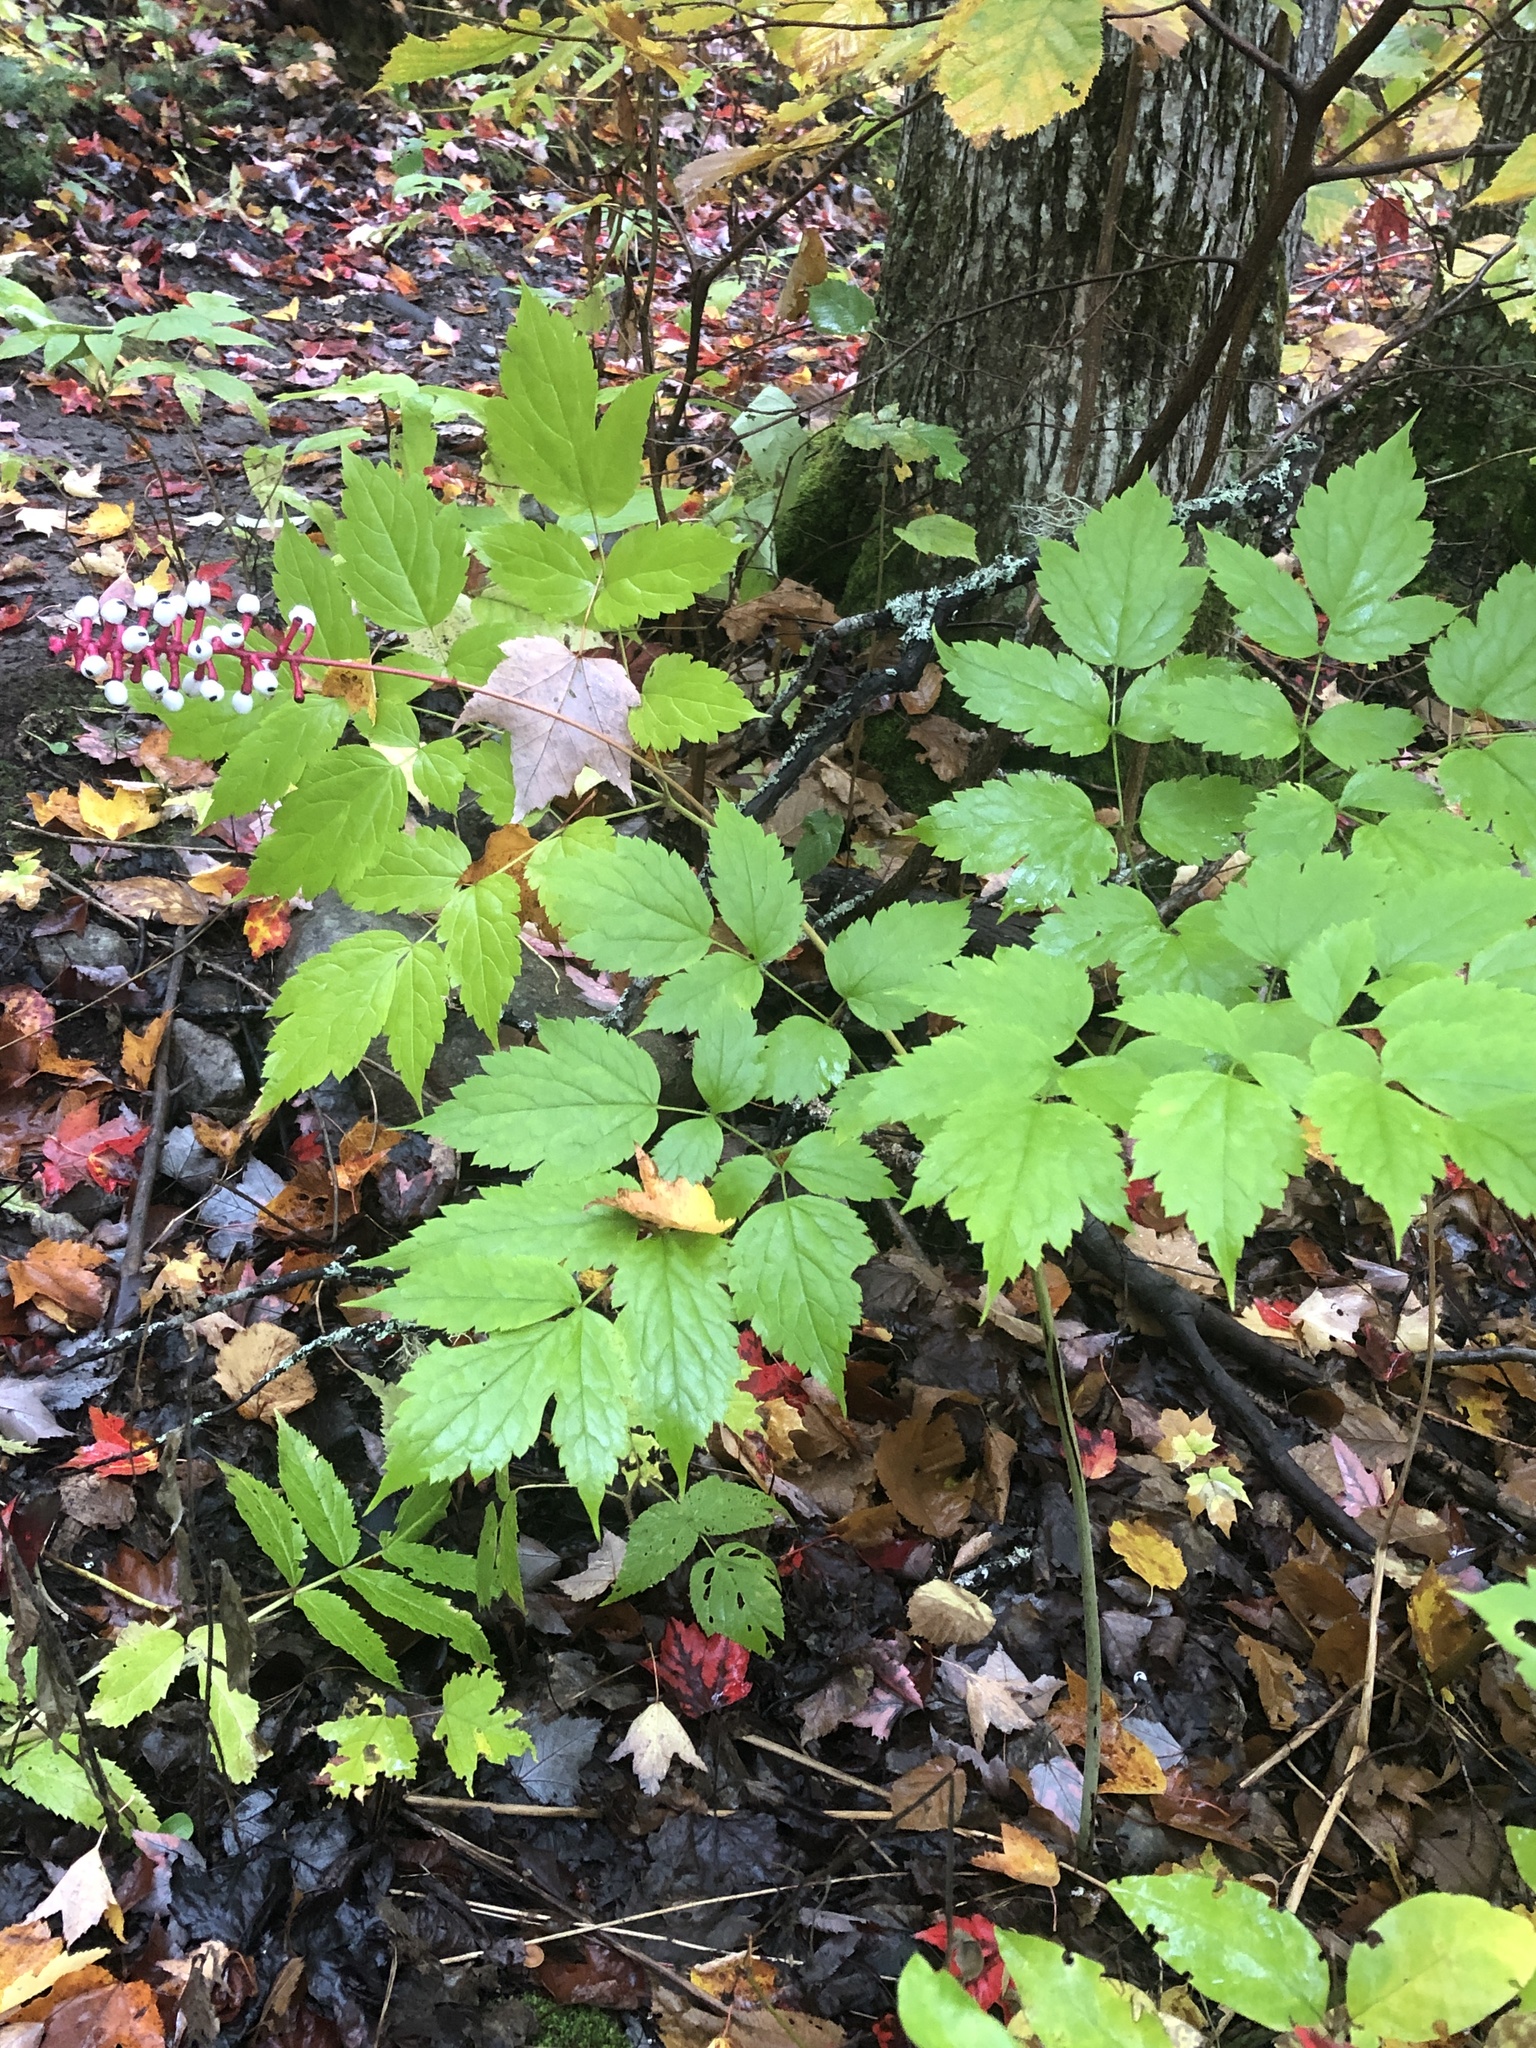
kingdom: Plantae
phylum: Tracheophyta
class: Magnoliopsida
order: Ranunculales
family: Ranunculaceae
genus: Actaea
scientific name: Actaea pachypoda
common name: Doll's-eyes
